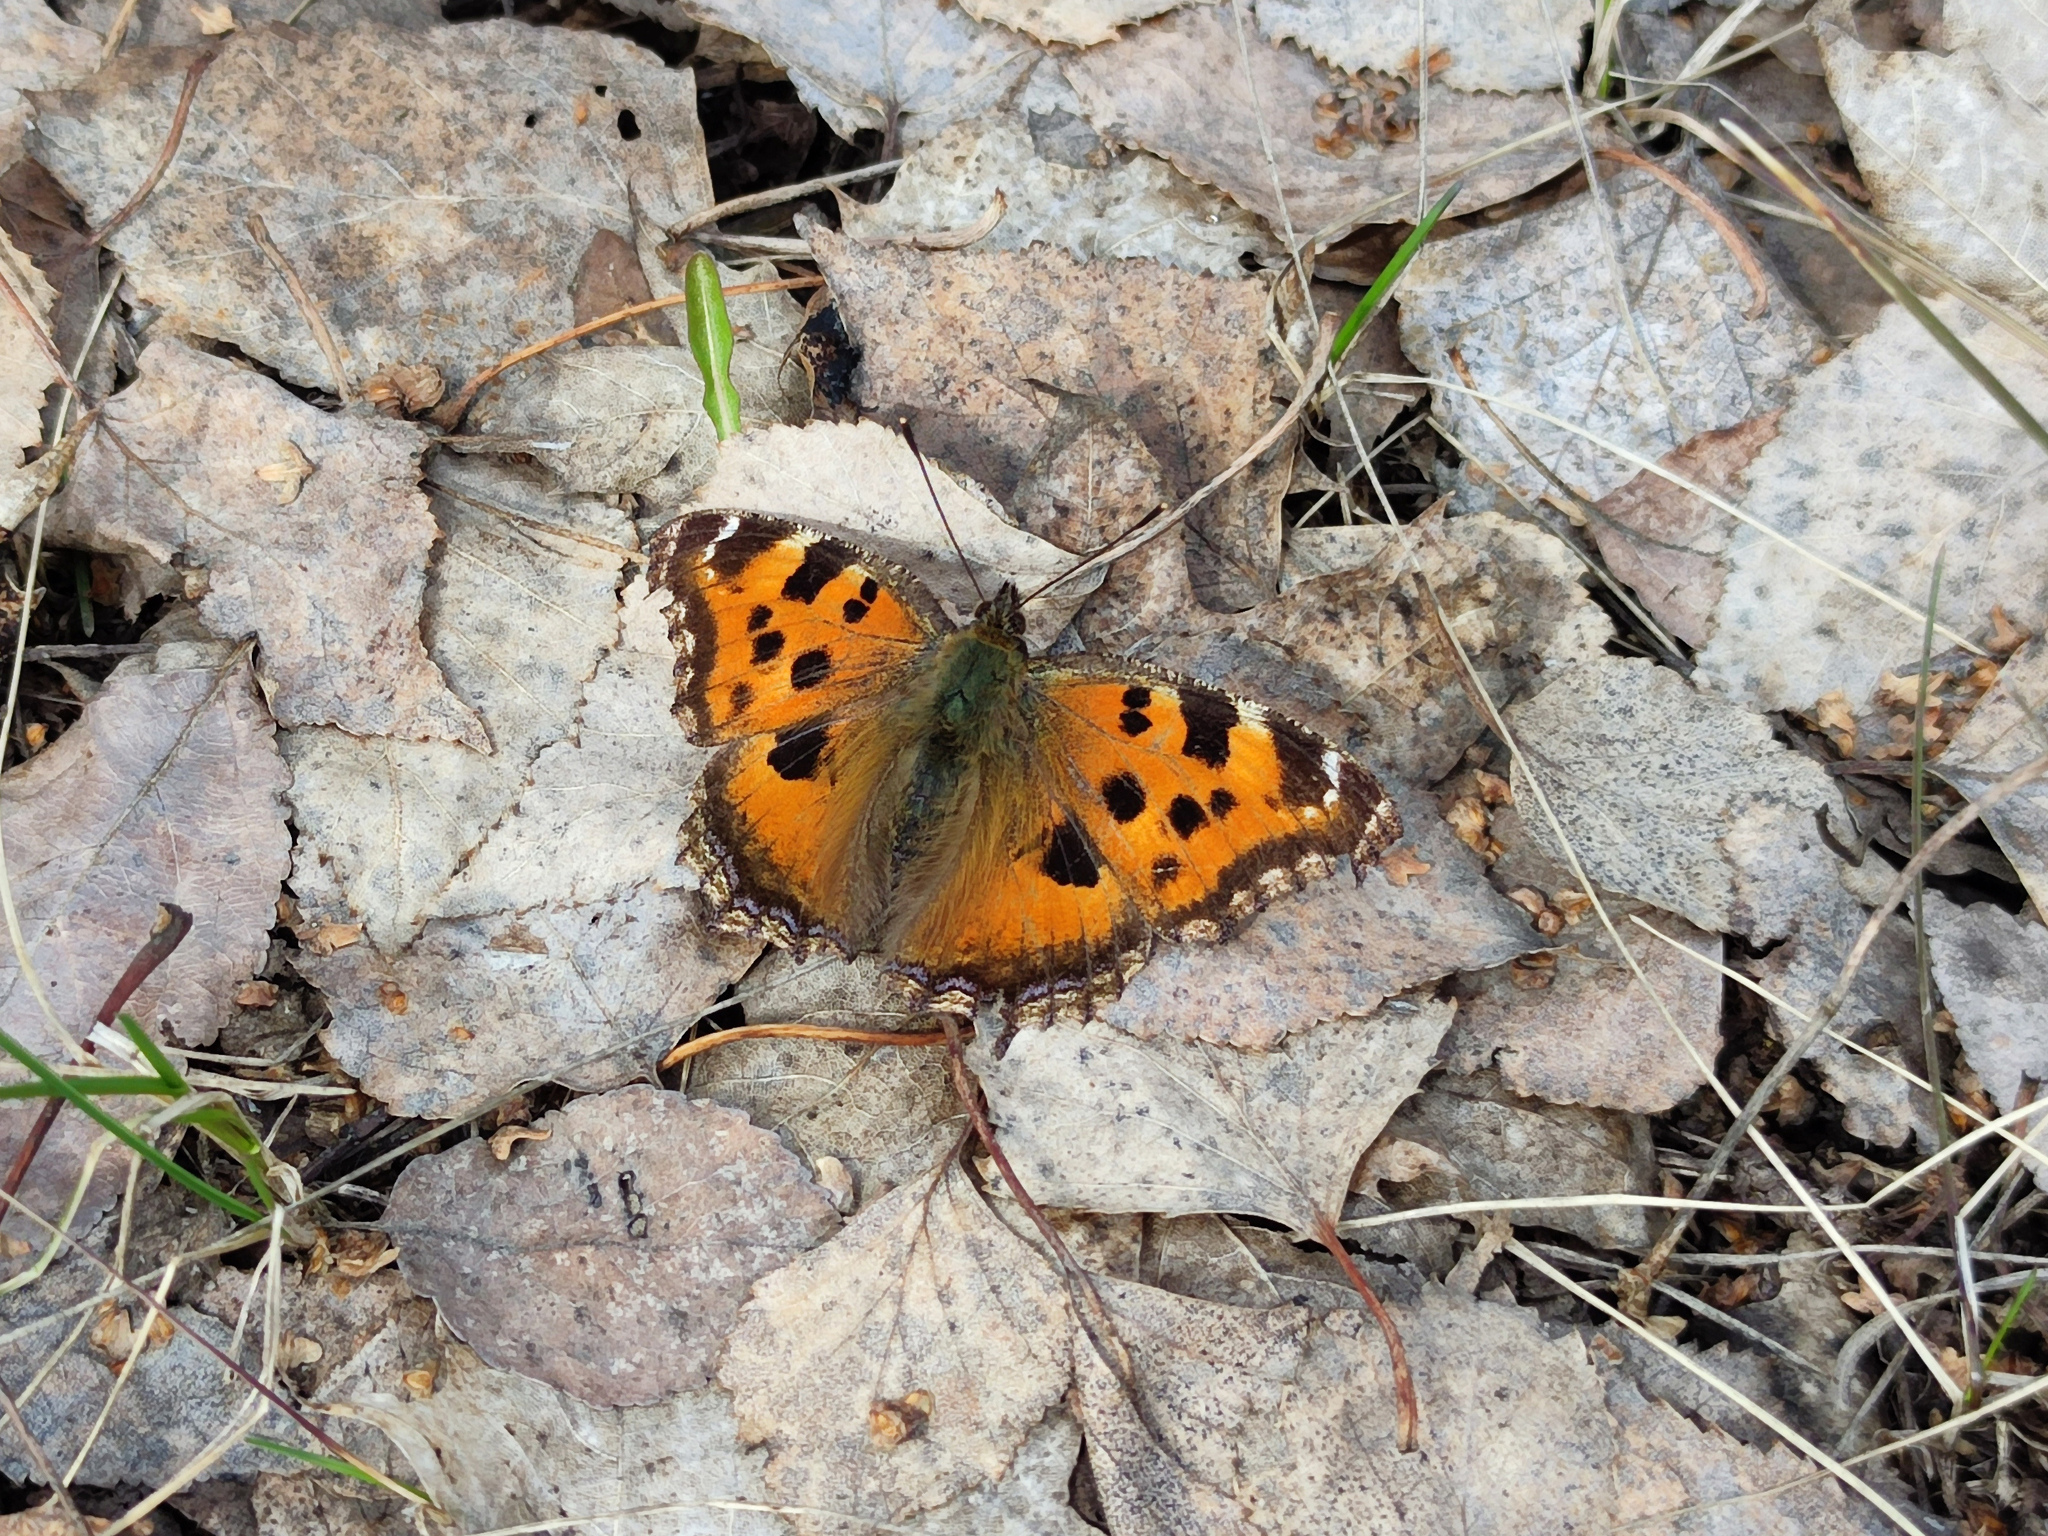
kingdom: Animalia
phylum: Arthropoda
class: Insecta
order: Lepidoptera
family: Nymphalidae
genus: Nymphalis
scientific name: Nymphalis xanthomelas
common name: Scarce tortoiseshell
